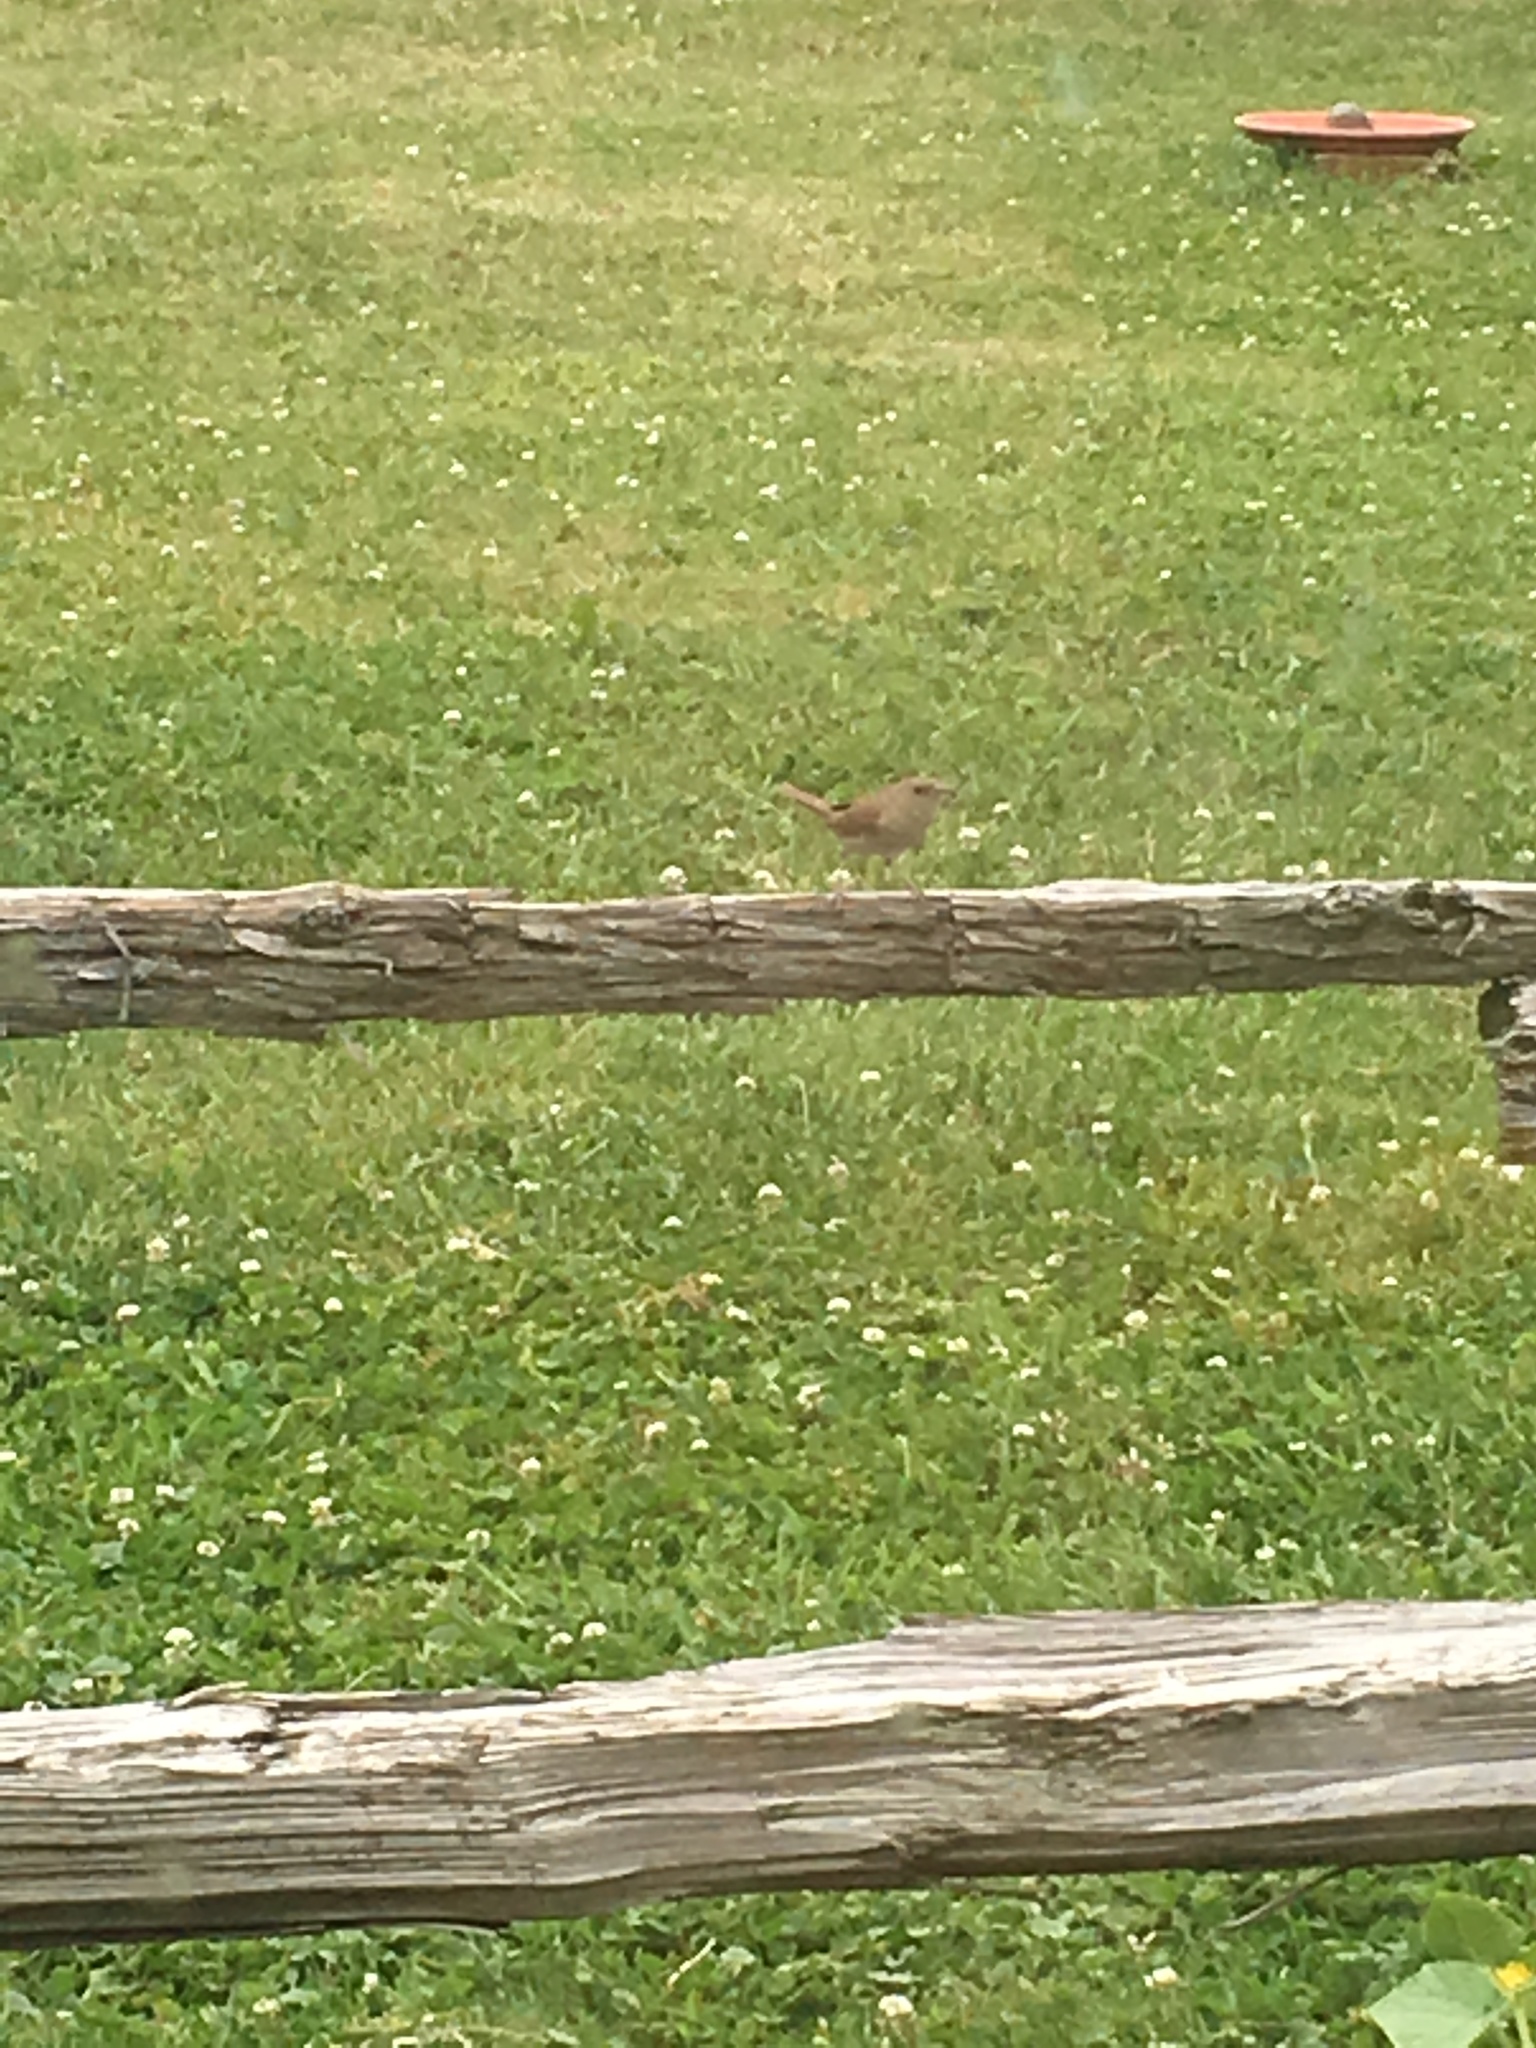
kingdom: Animalia
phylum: Chordata
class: Aves
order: Passeriformes
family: Troglodytidae
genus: Troglodytes
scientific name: Troglodytes aedon
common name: House wren
